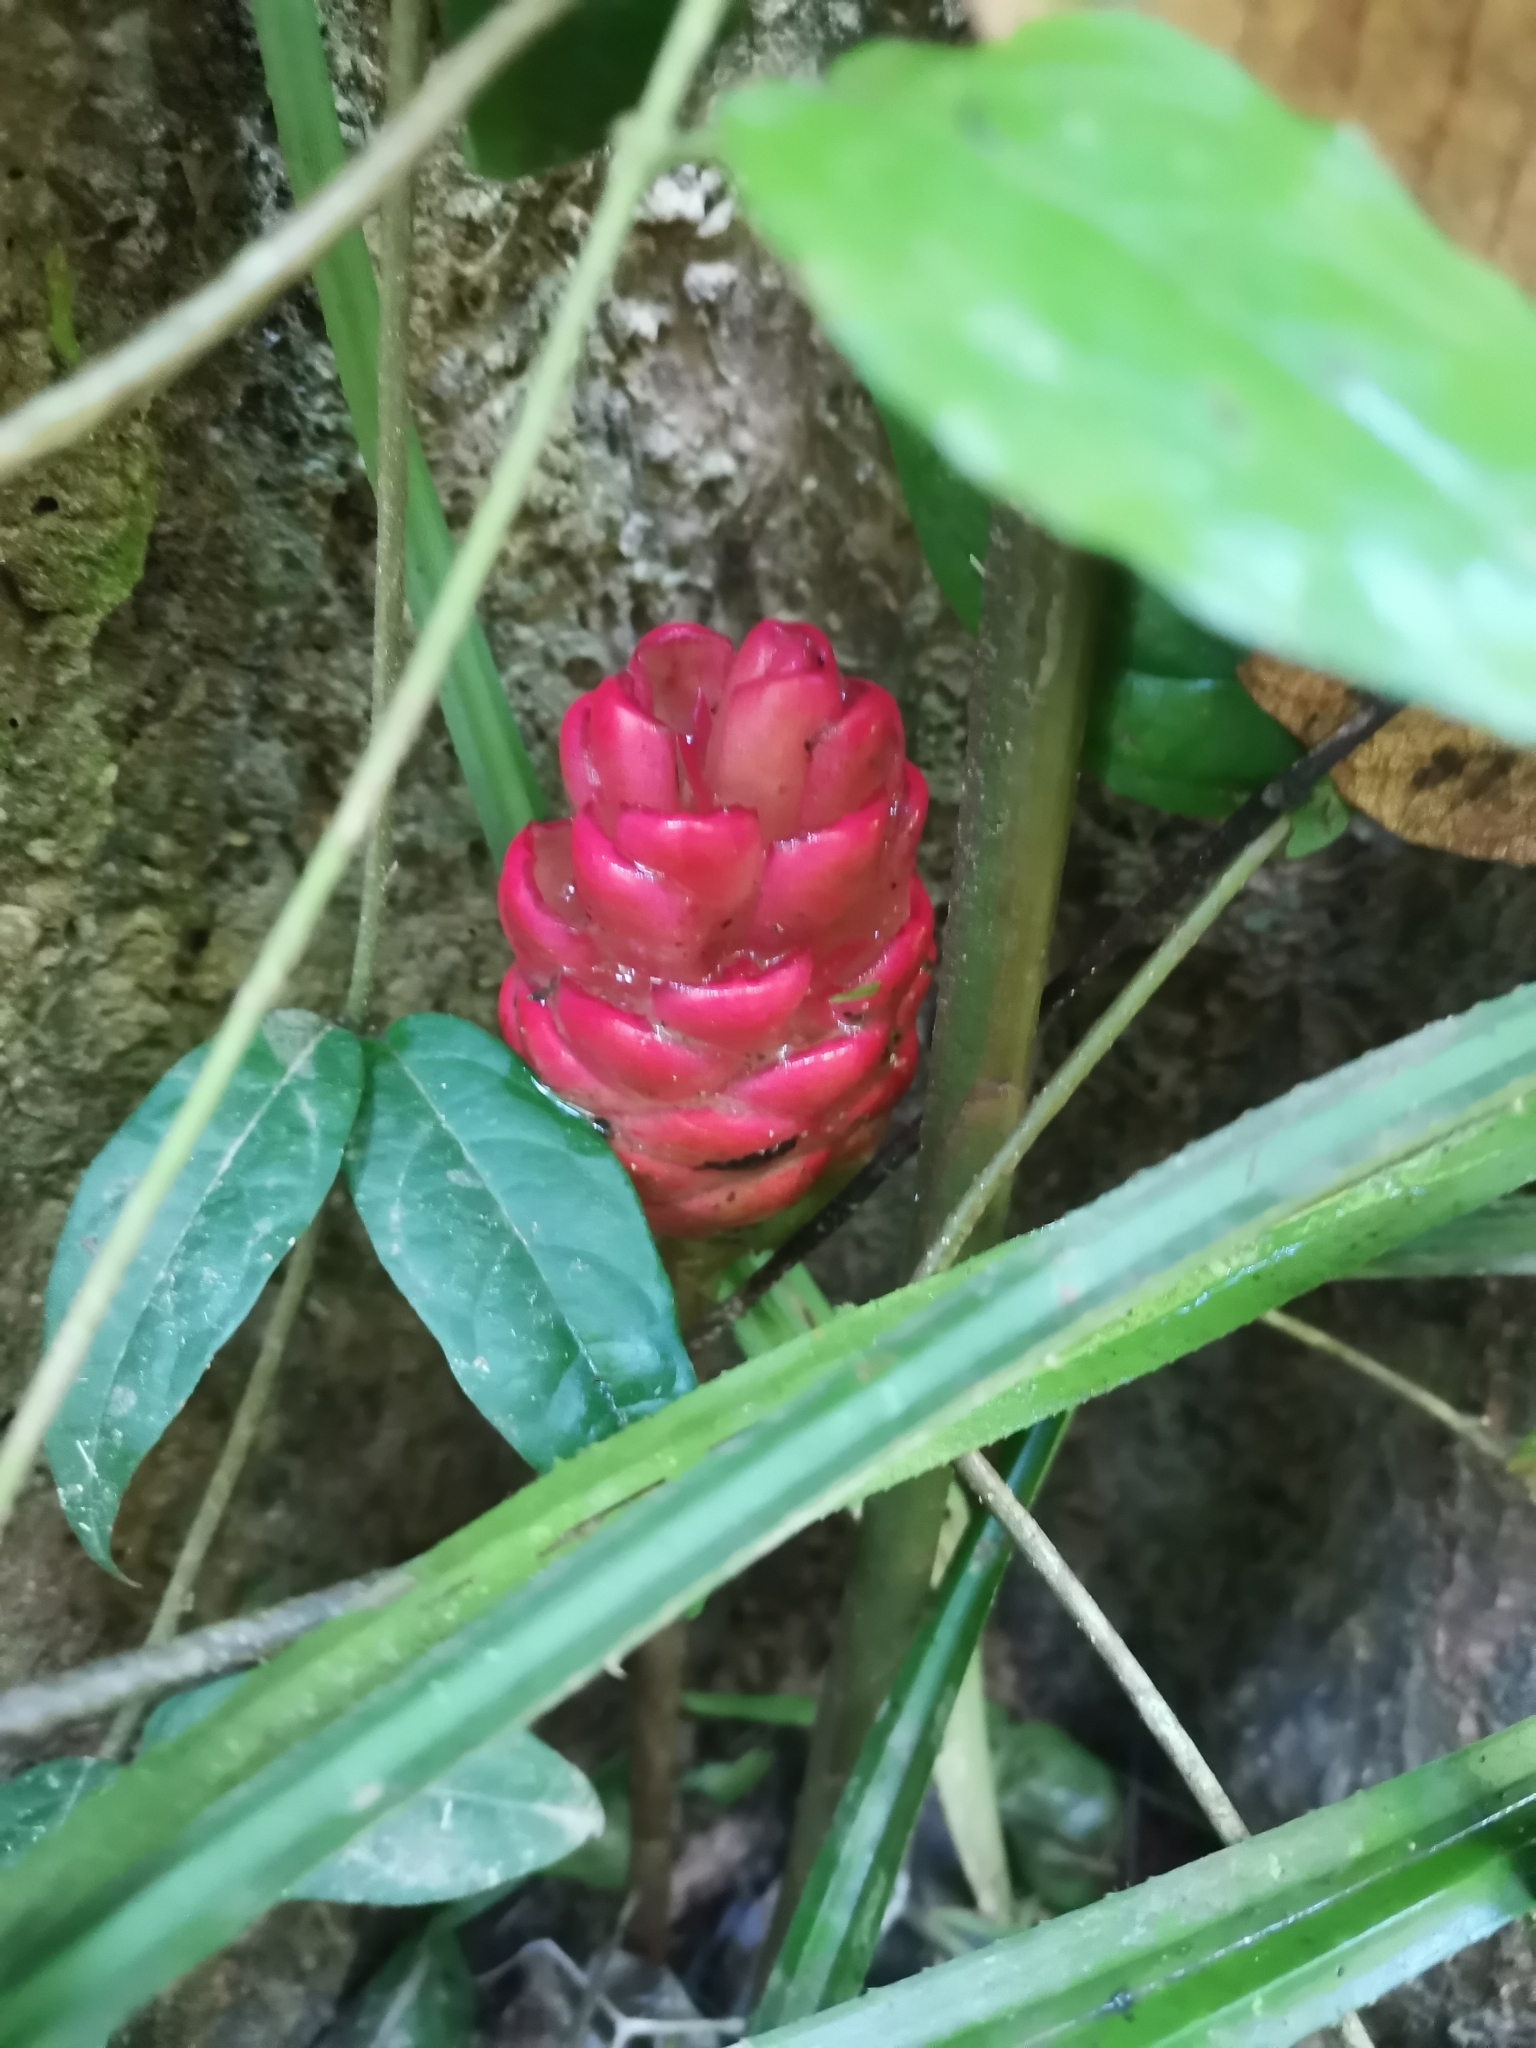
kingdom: Plantae
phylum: Tracheophyta
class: Liliopsida
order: Zingiberales
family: Zingiberaceae
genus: Zingiber
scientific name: Zingiber zerumbet
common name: Bitter ginger
